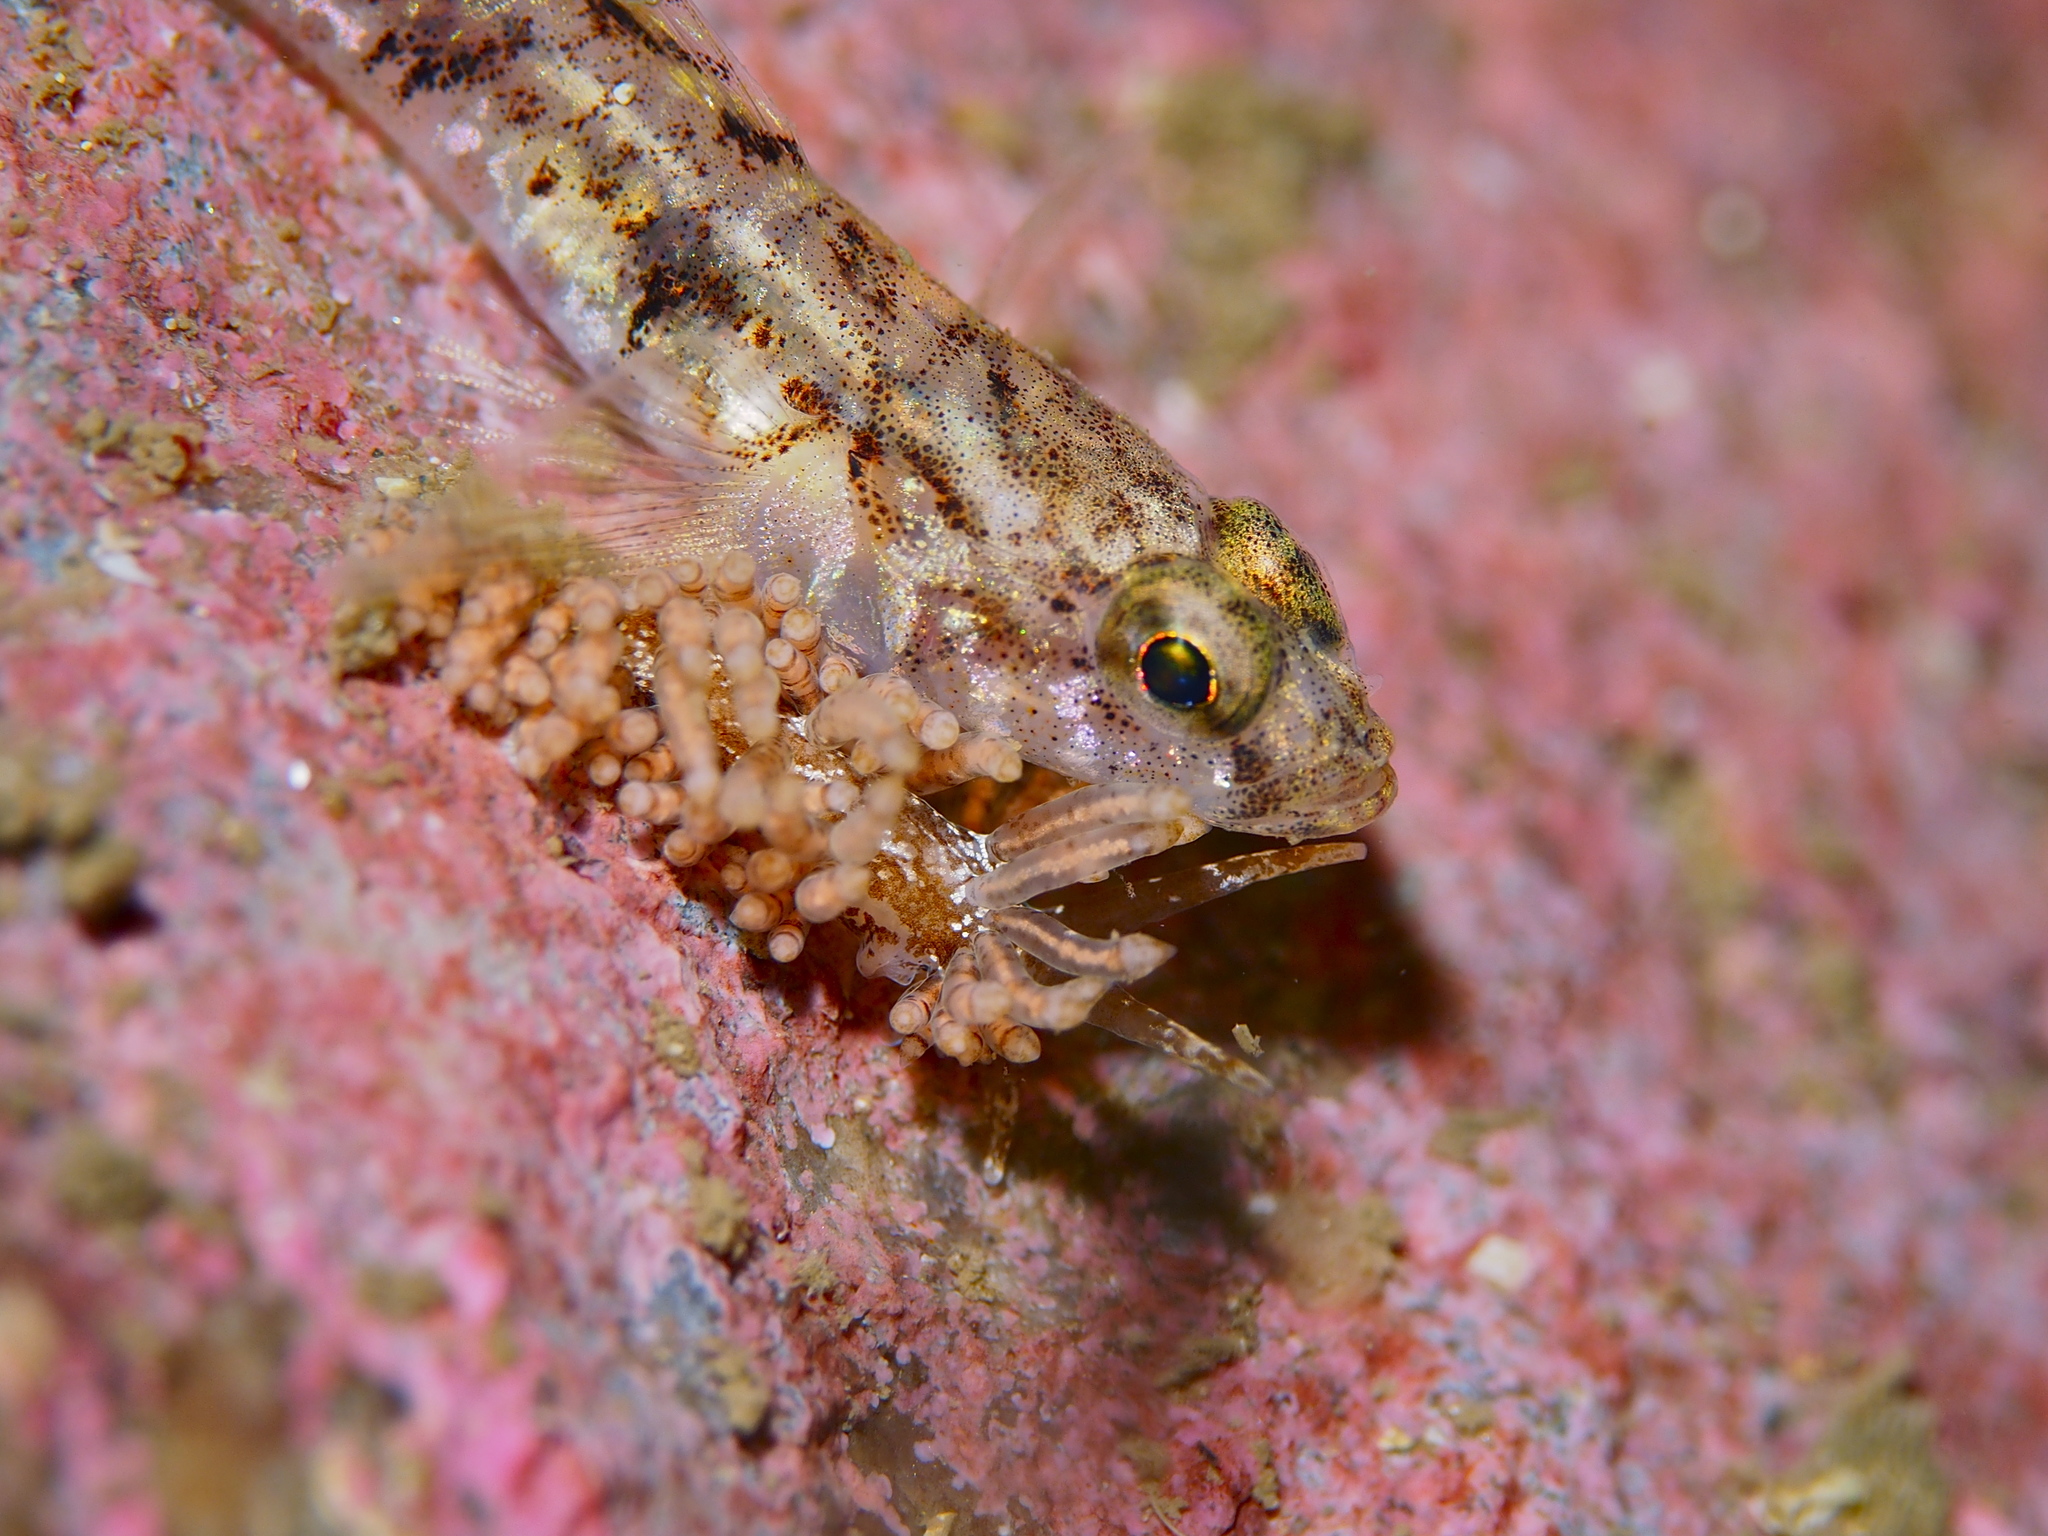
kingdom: Animalia
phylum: Mollusca
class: Gastropoda
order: Nudibranchia
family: Eubranchidae
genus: Eubranchus
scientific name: Eubranchus vittatus
